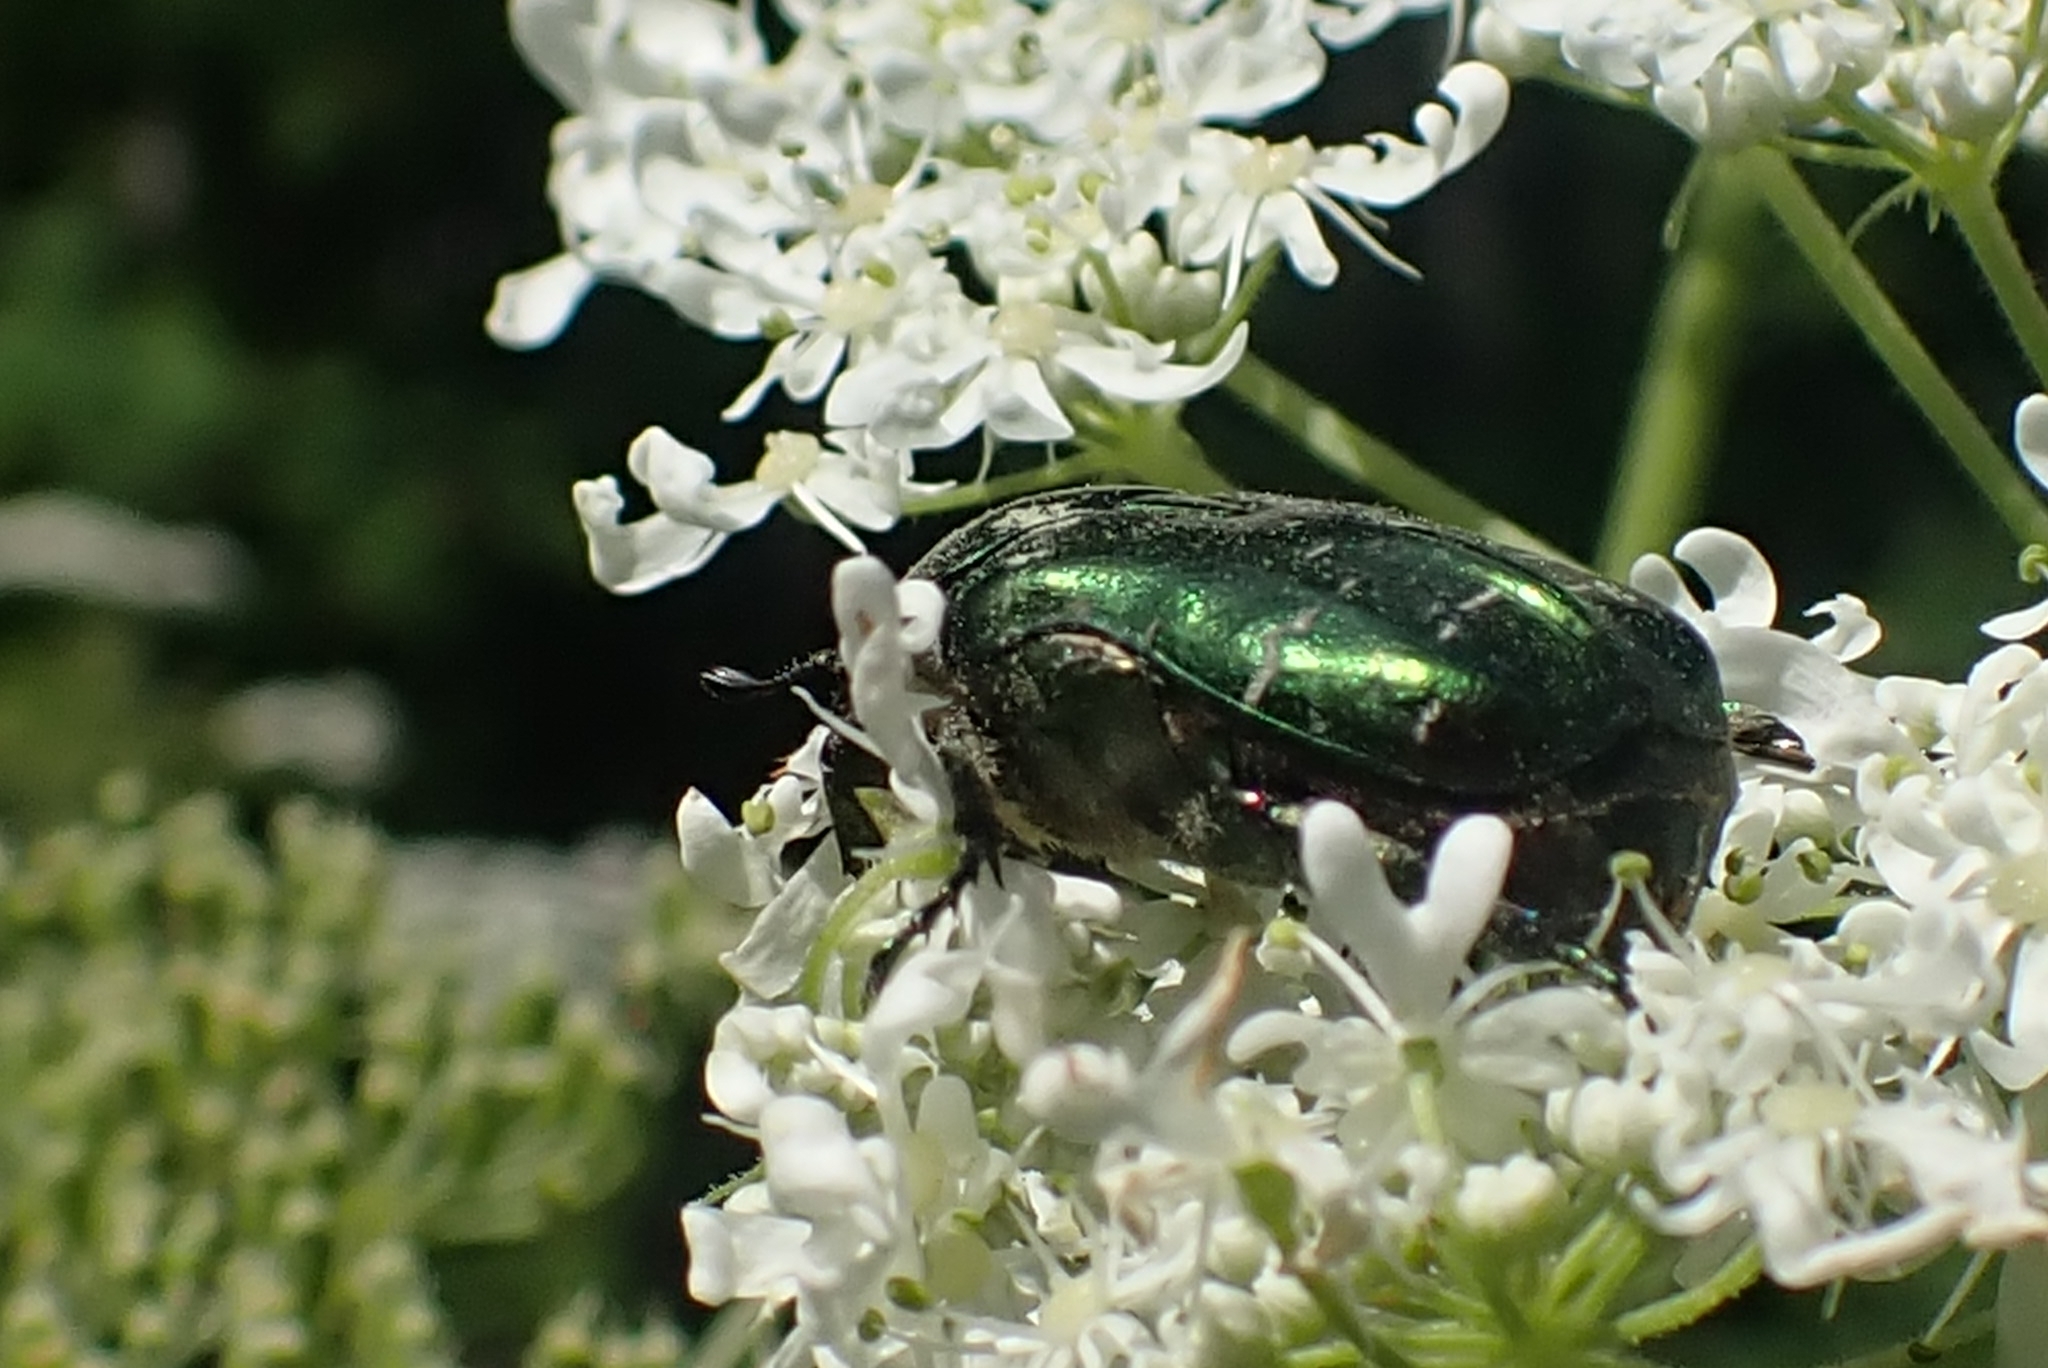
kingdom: Animalia
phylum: Arthropoda
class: Insecta
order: Coleoptera
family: Scarabaeidae
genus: Cetonia
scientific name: Cetonia aurata
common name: Rose chafer
